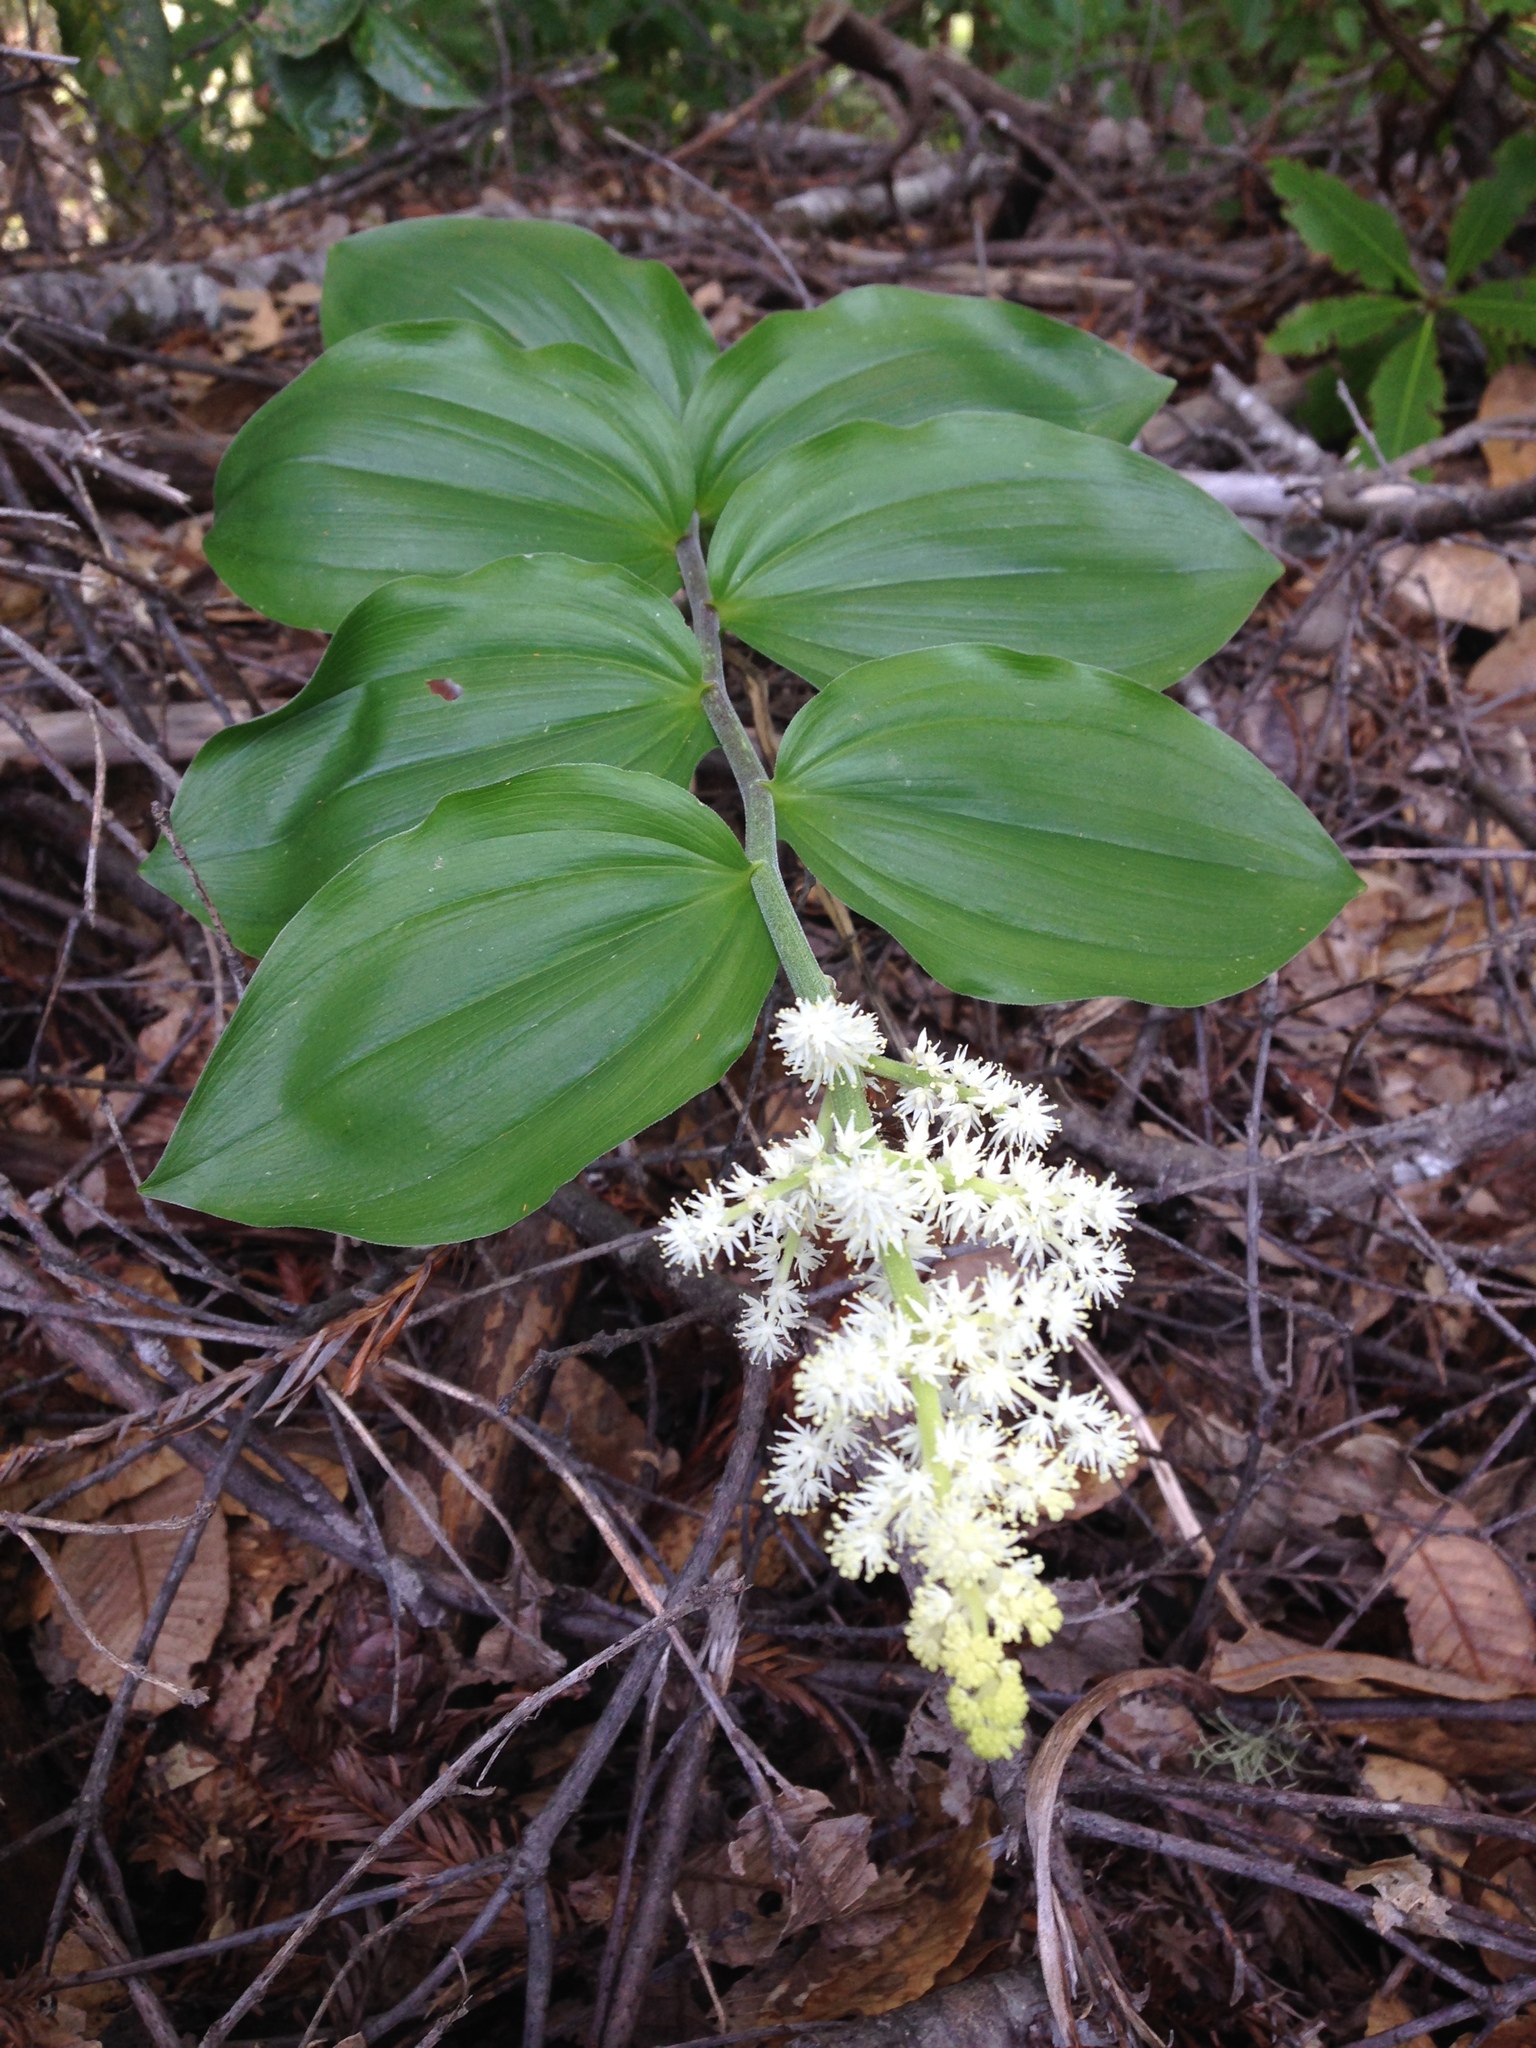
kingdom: Plantae
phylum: Tracheophyta
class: Liliopsida
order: Asparagales
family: Asparagaceae
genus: Maianthemum
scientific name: Maianthemum racemosum
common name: False spikenard
